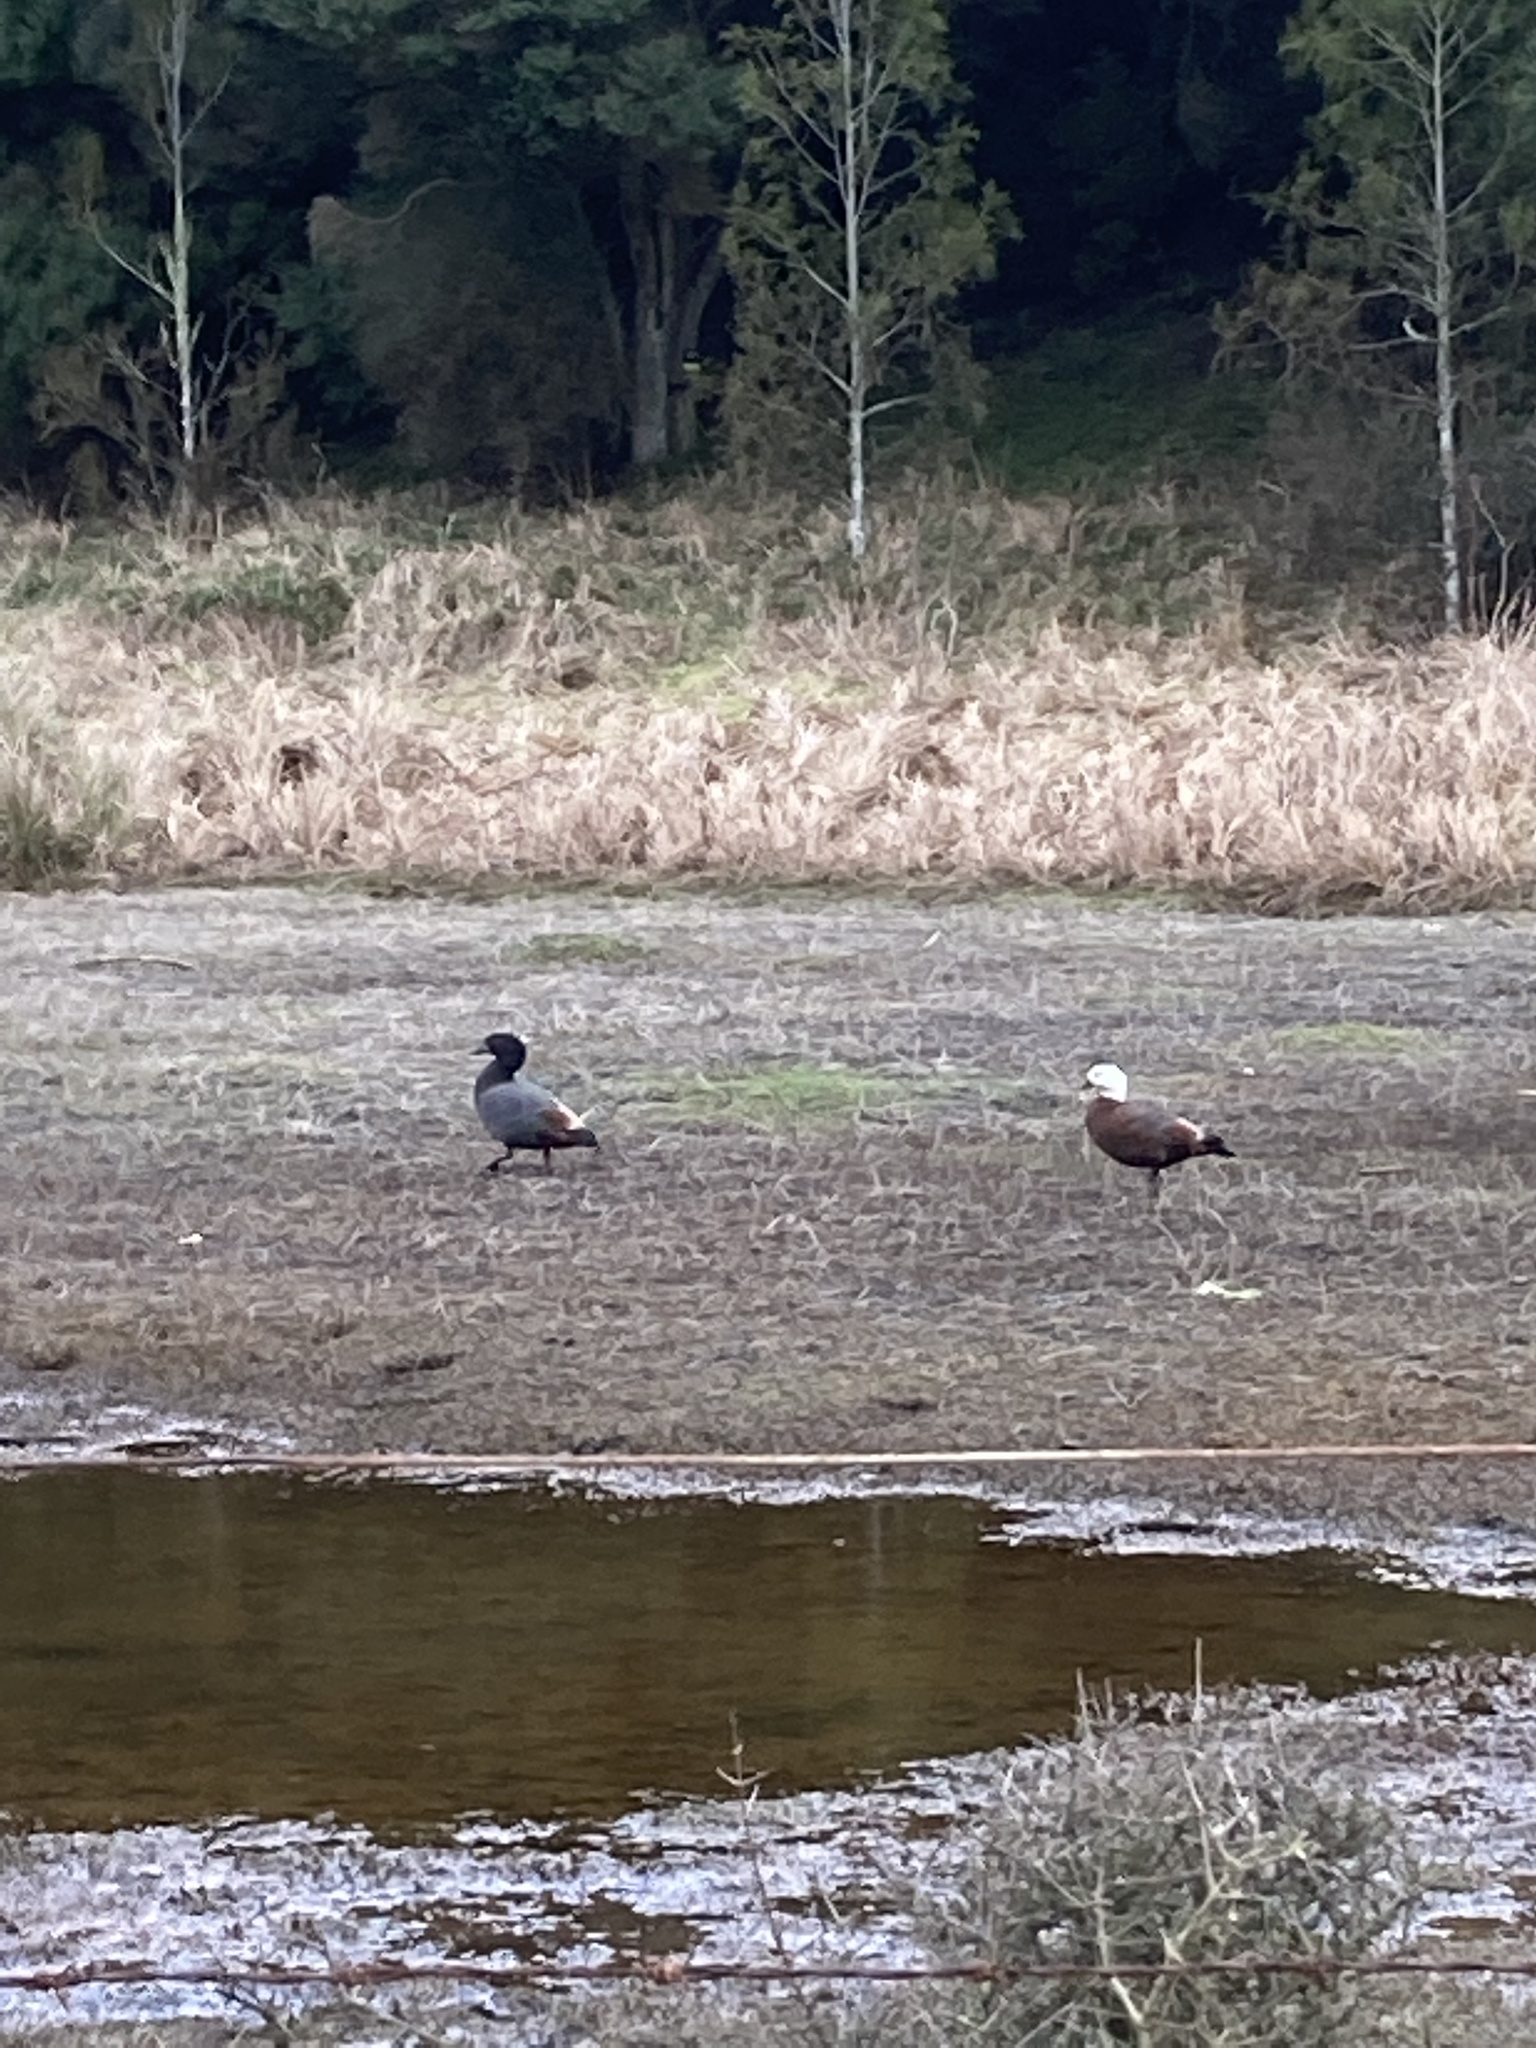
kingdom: Animalia
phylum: Chordata
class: Aves
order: Anseriformes
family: Anatidae
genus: Tadorna
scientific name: Tadorna variegata
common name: Paradise shelduck
